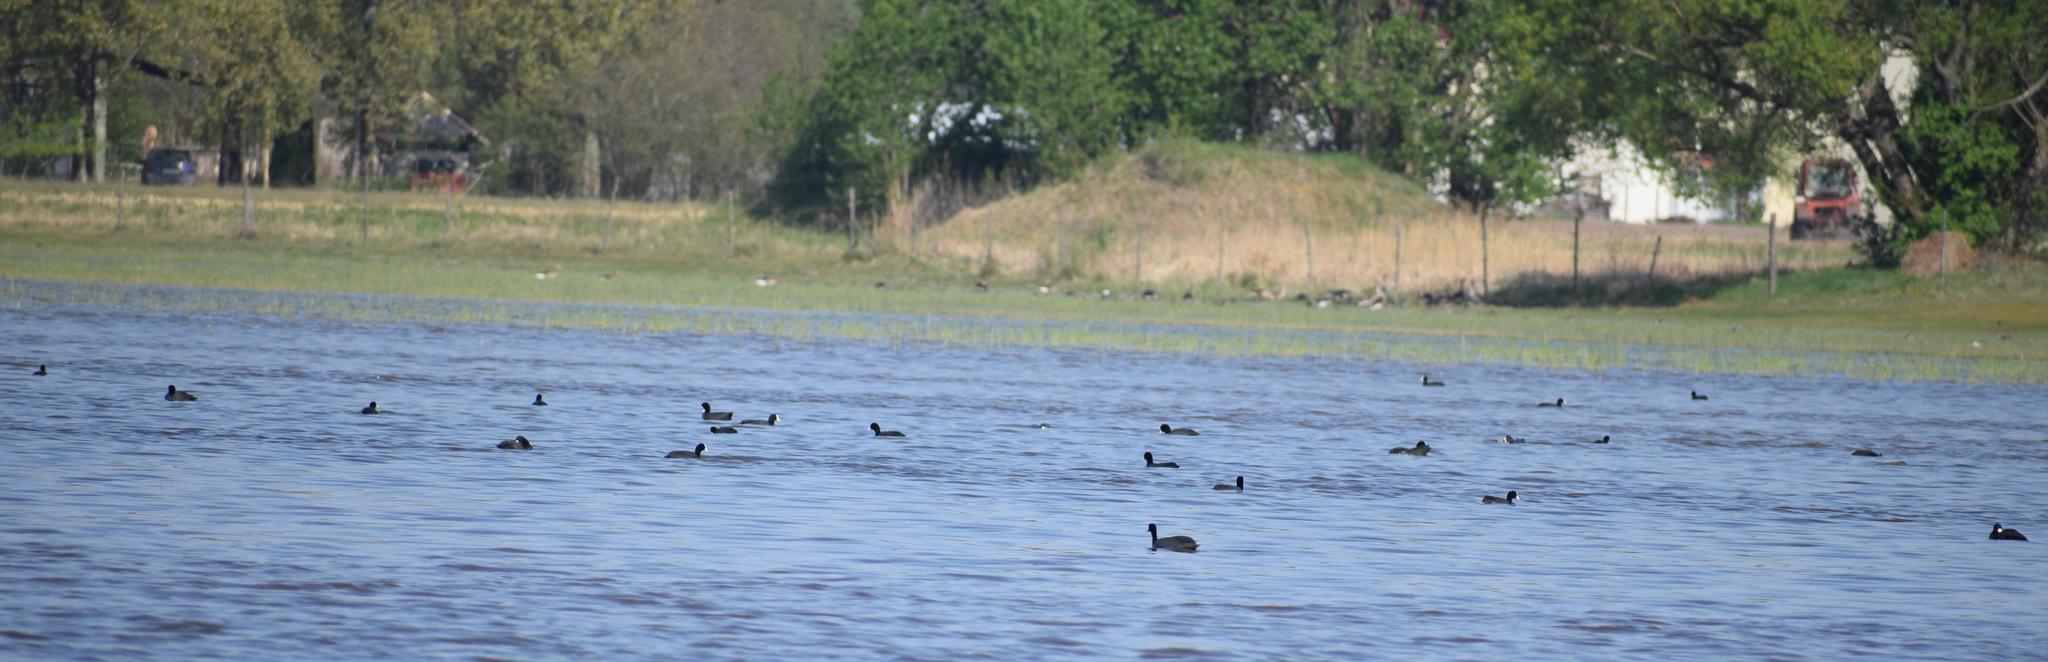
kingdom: Animalia
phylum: Chordata
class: Aves
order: Gruiformes
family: Rallidae
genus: Fulica
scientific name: Fulica atra
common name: Eurasian coot
